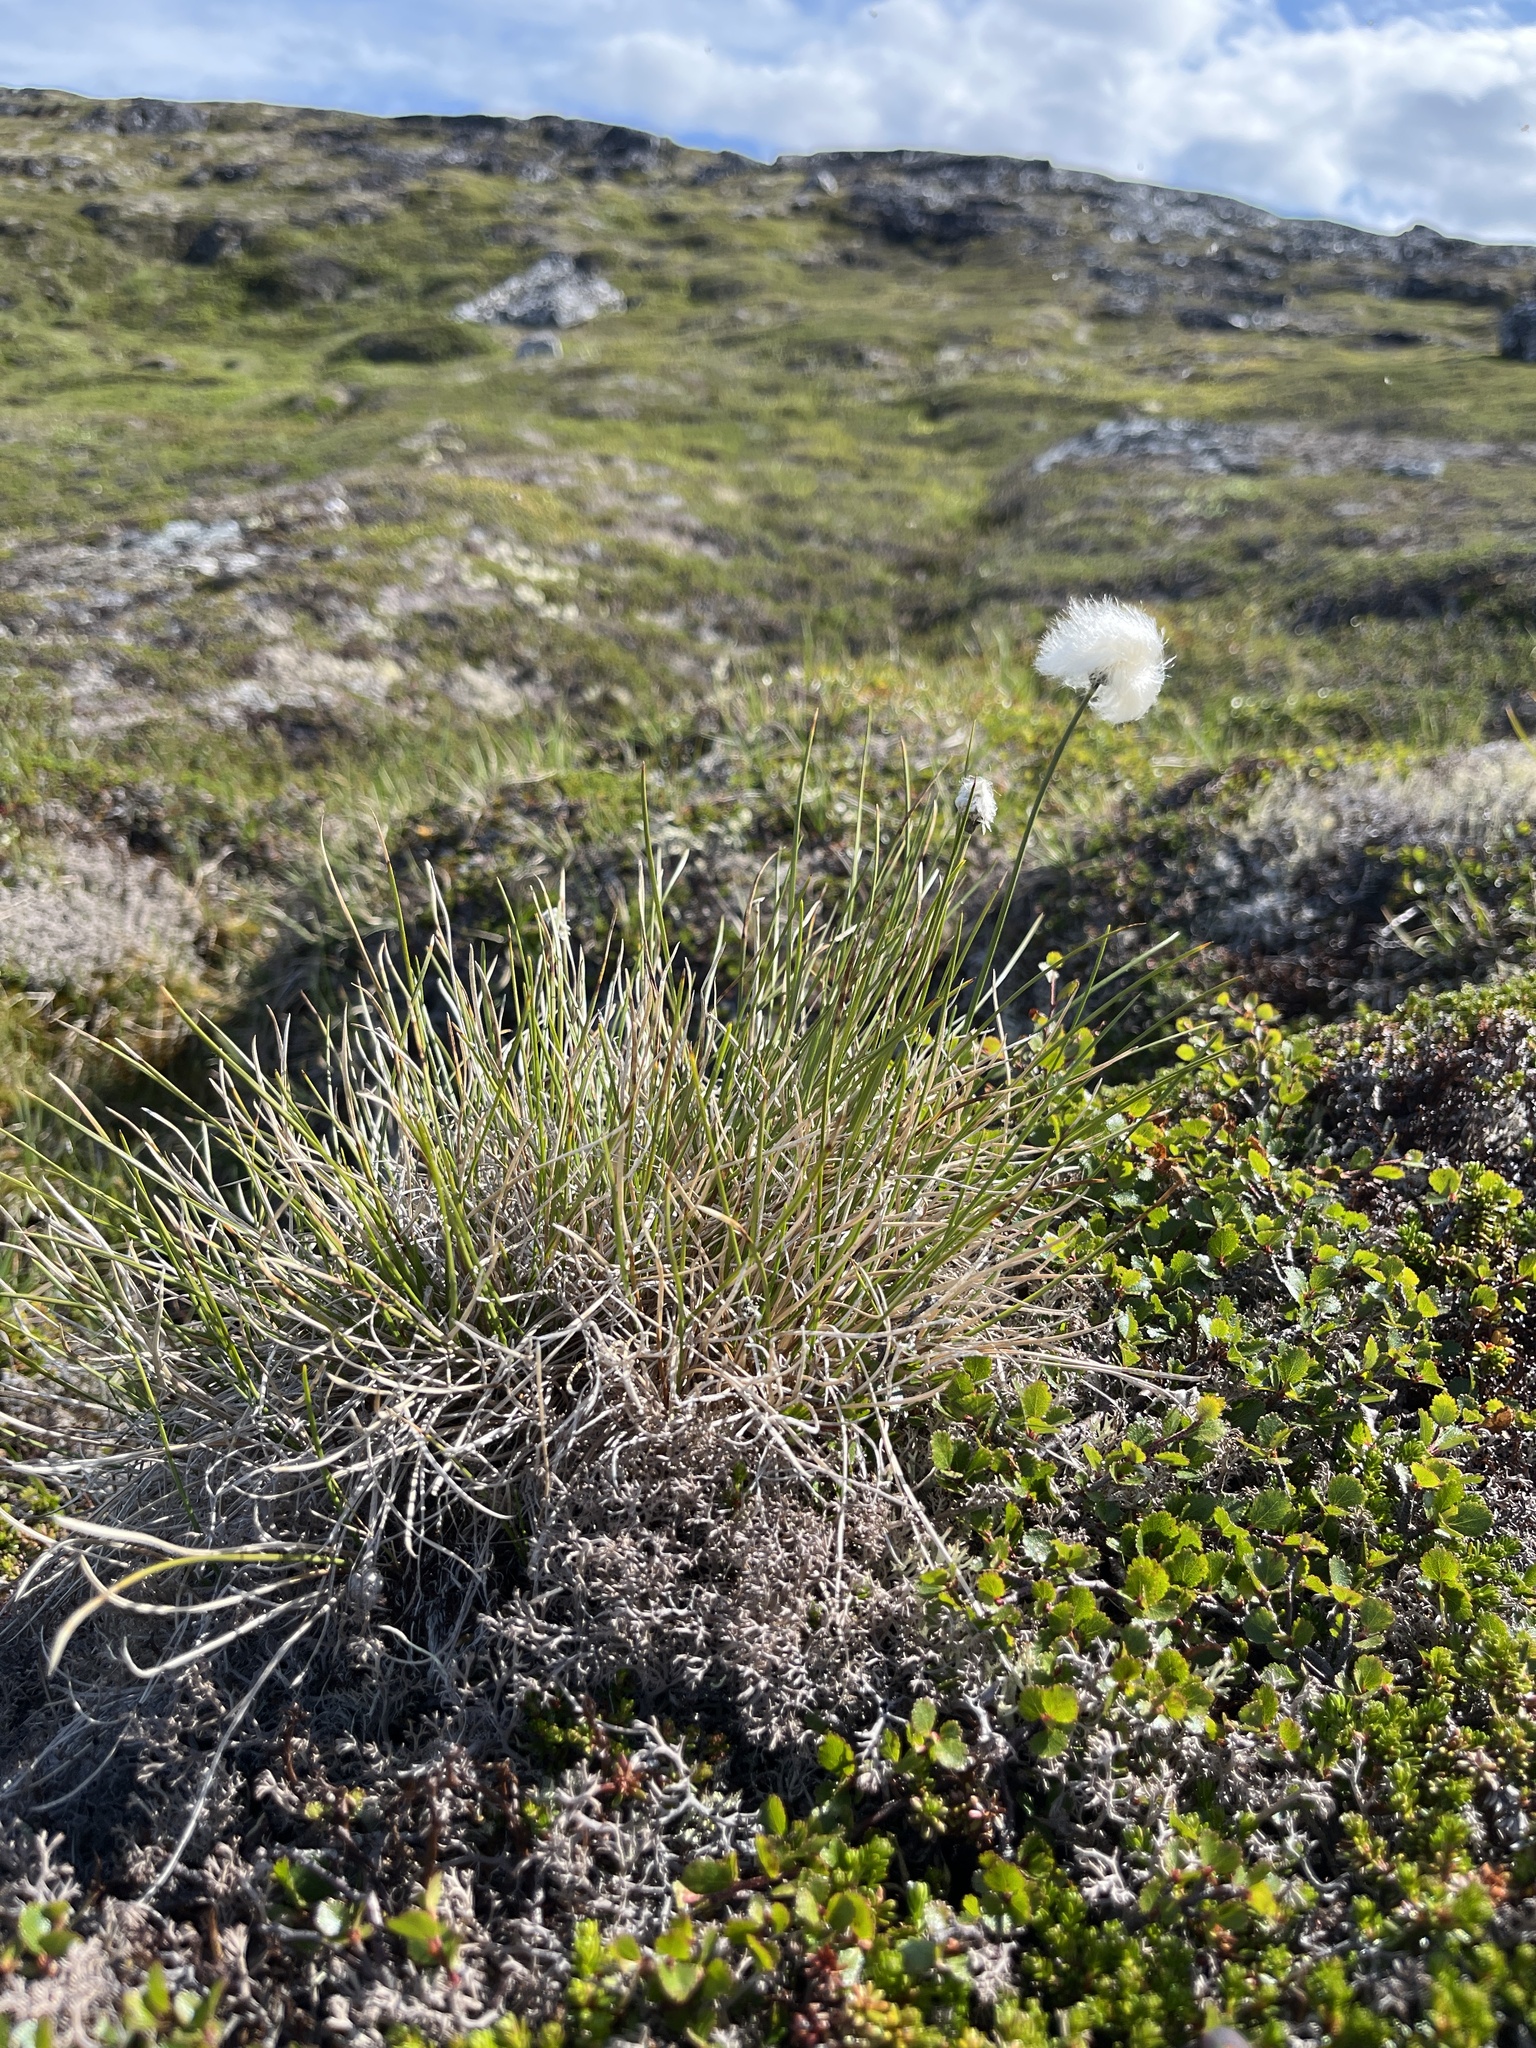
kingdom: Plantae
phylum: Tracheophyta
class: Liliopsida
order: Poales
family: Cyperaceae
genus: Eriophorum
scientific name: Eriophorum vaginatum
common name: Hare's-tail cottongrass
